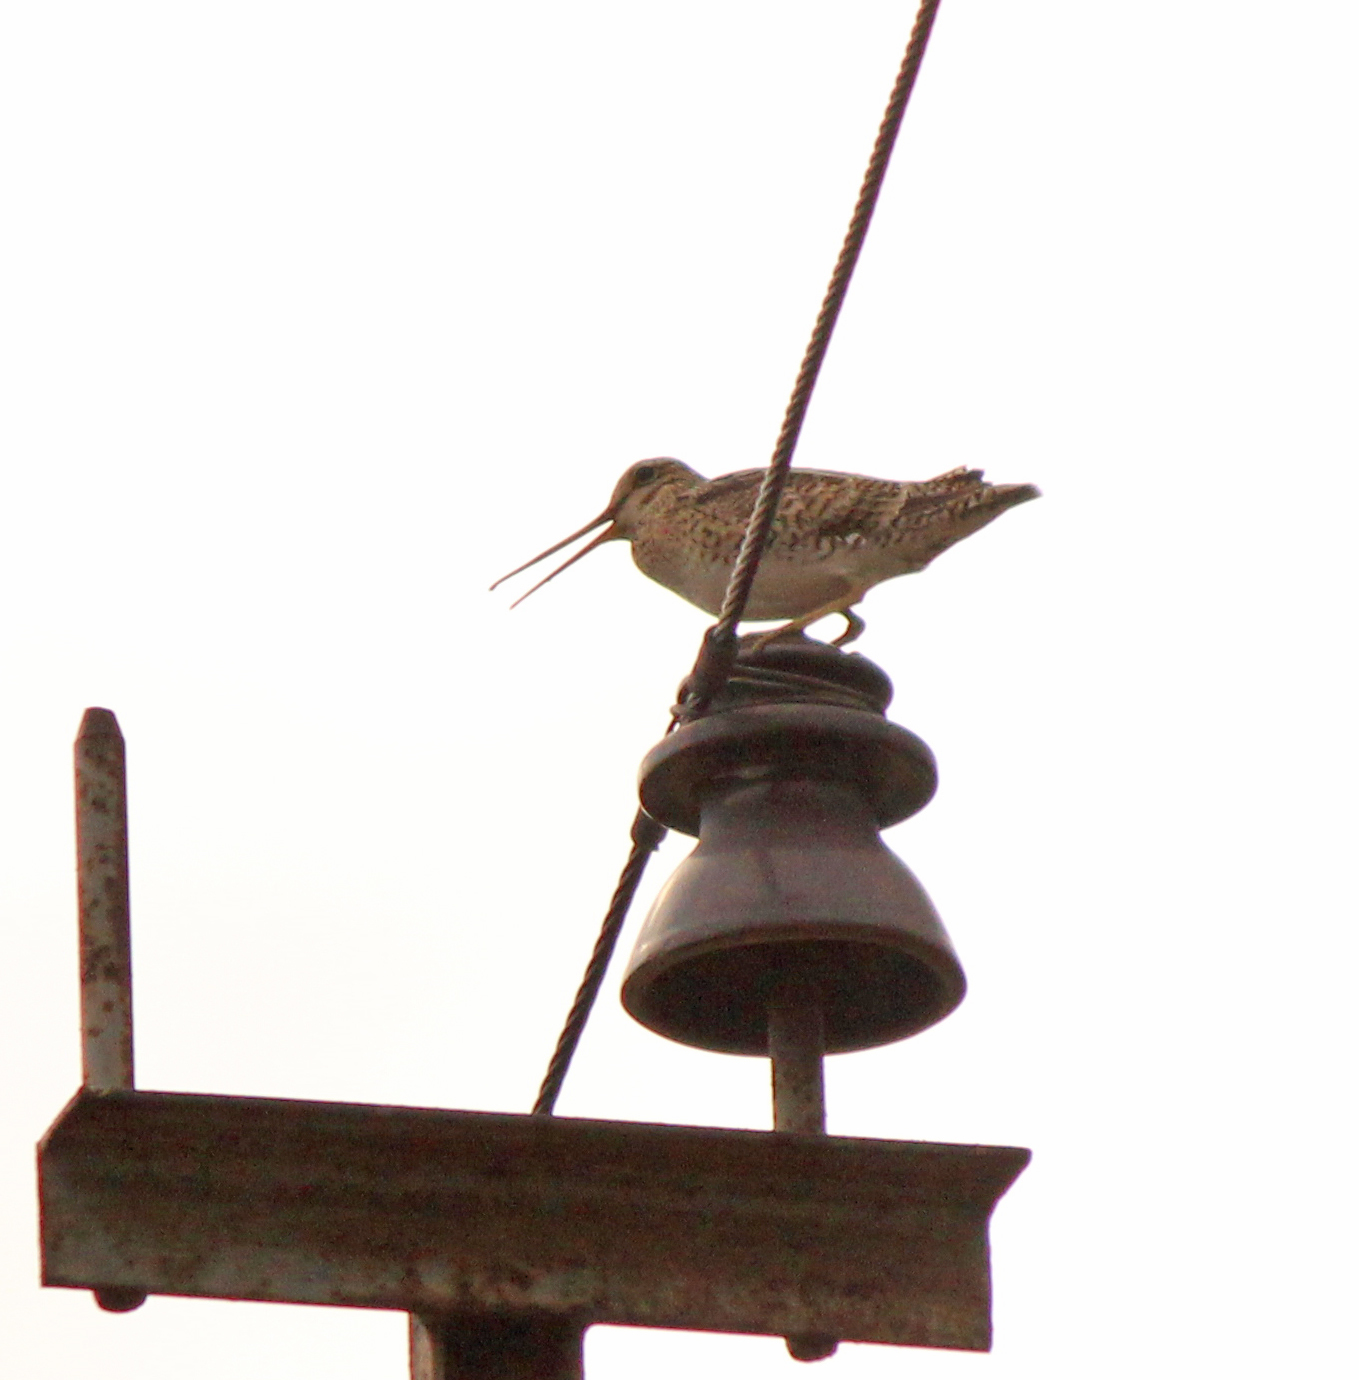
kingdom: Animalia
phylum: Chordata
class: Aves
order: Charadriiformes
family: Scolopacidae
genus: Gallinago
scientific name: Gallinago megala
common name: Swinhoe's snipe
